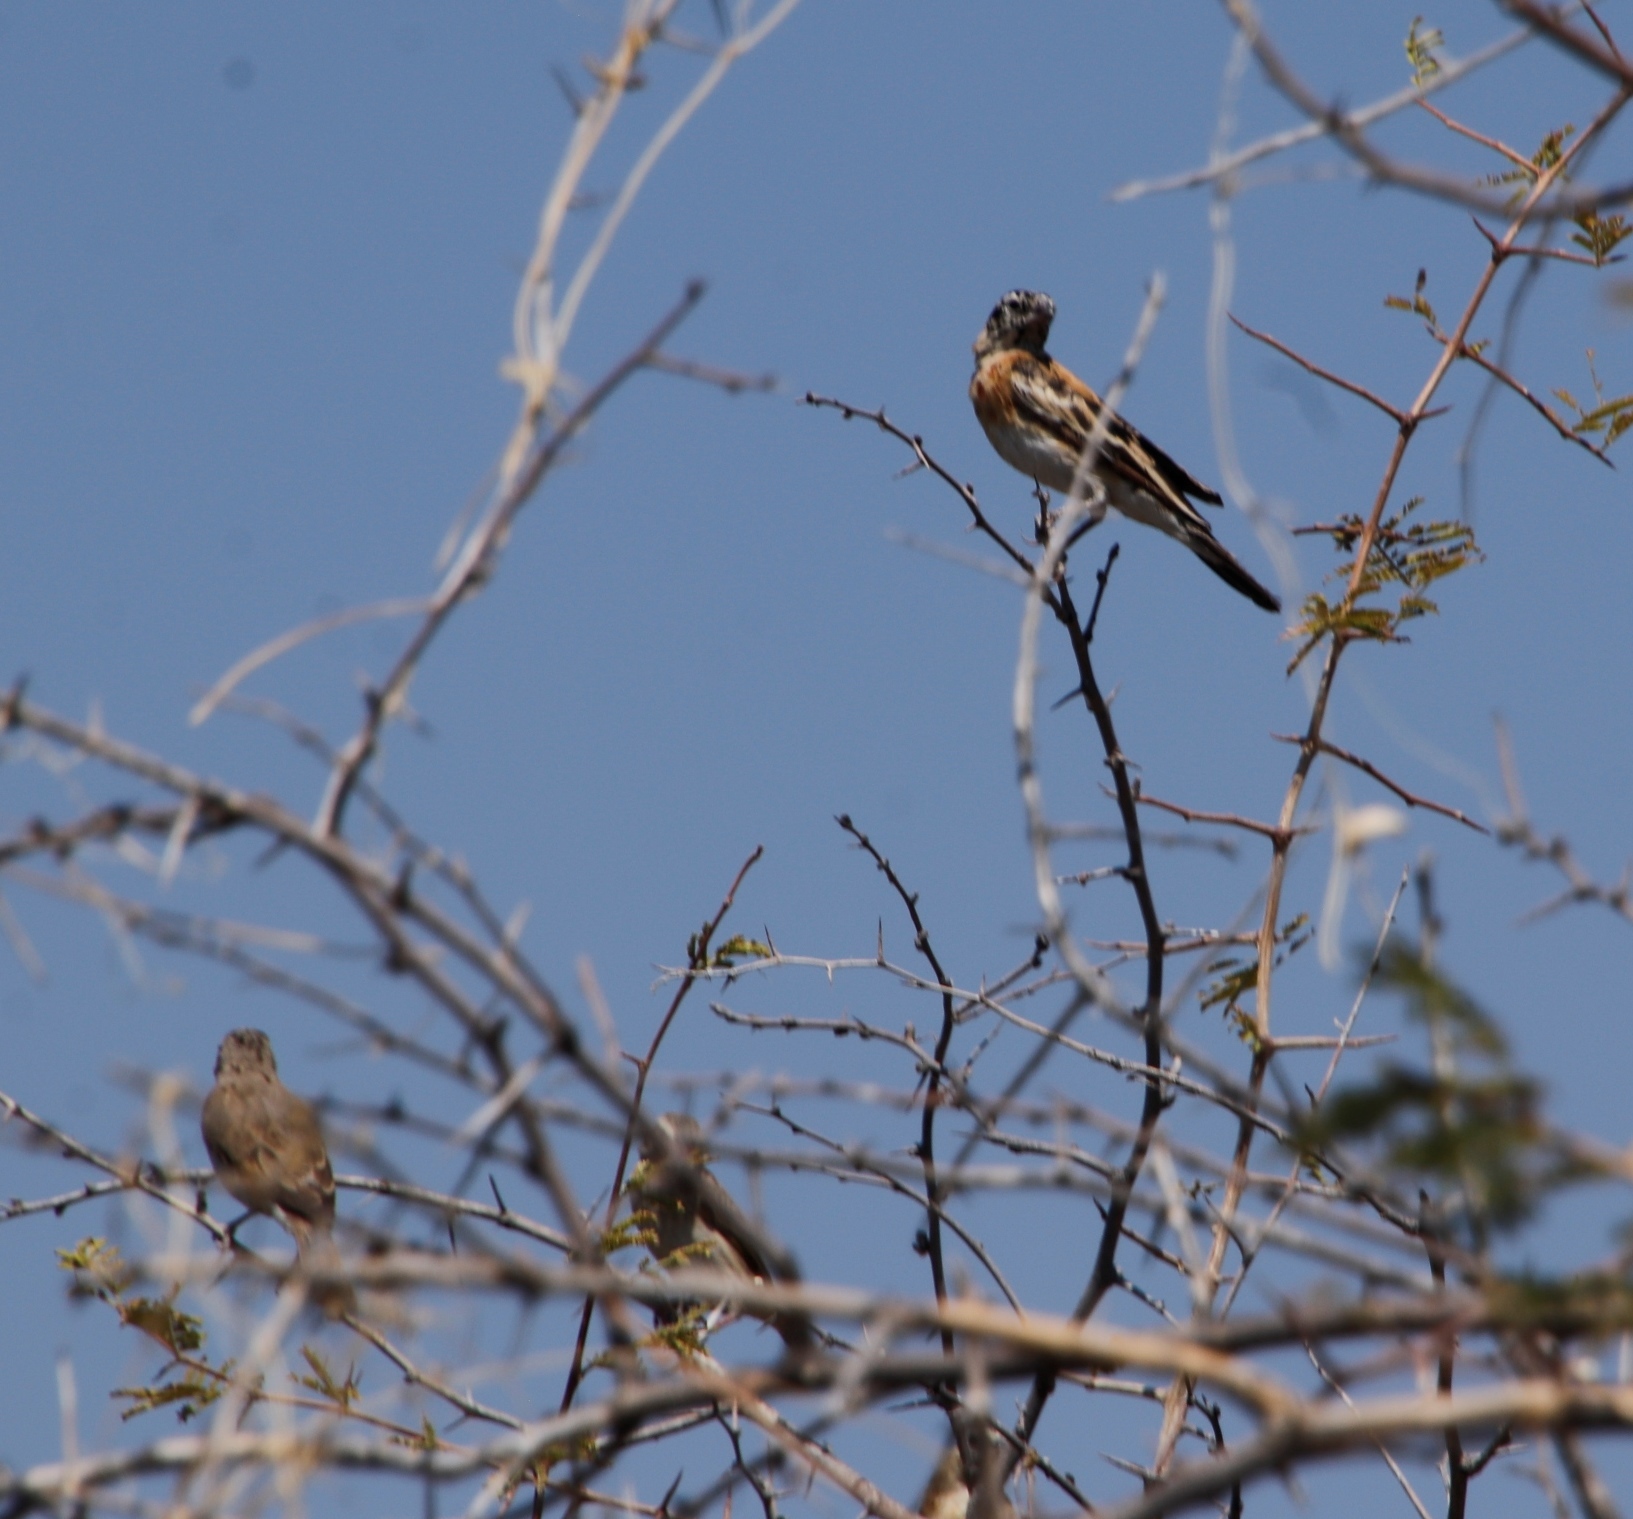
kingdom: Animalia
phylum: Chordata
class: Aves
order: Passeriformes
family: Viduidae
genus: Vidua
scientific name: Vidua paradisaea
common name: Long-tailed paradise whydah
